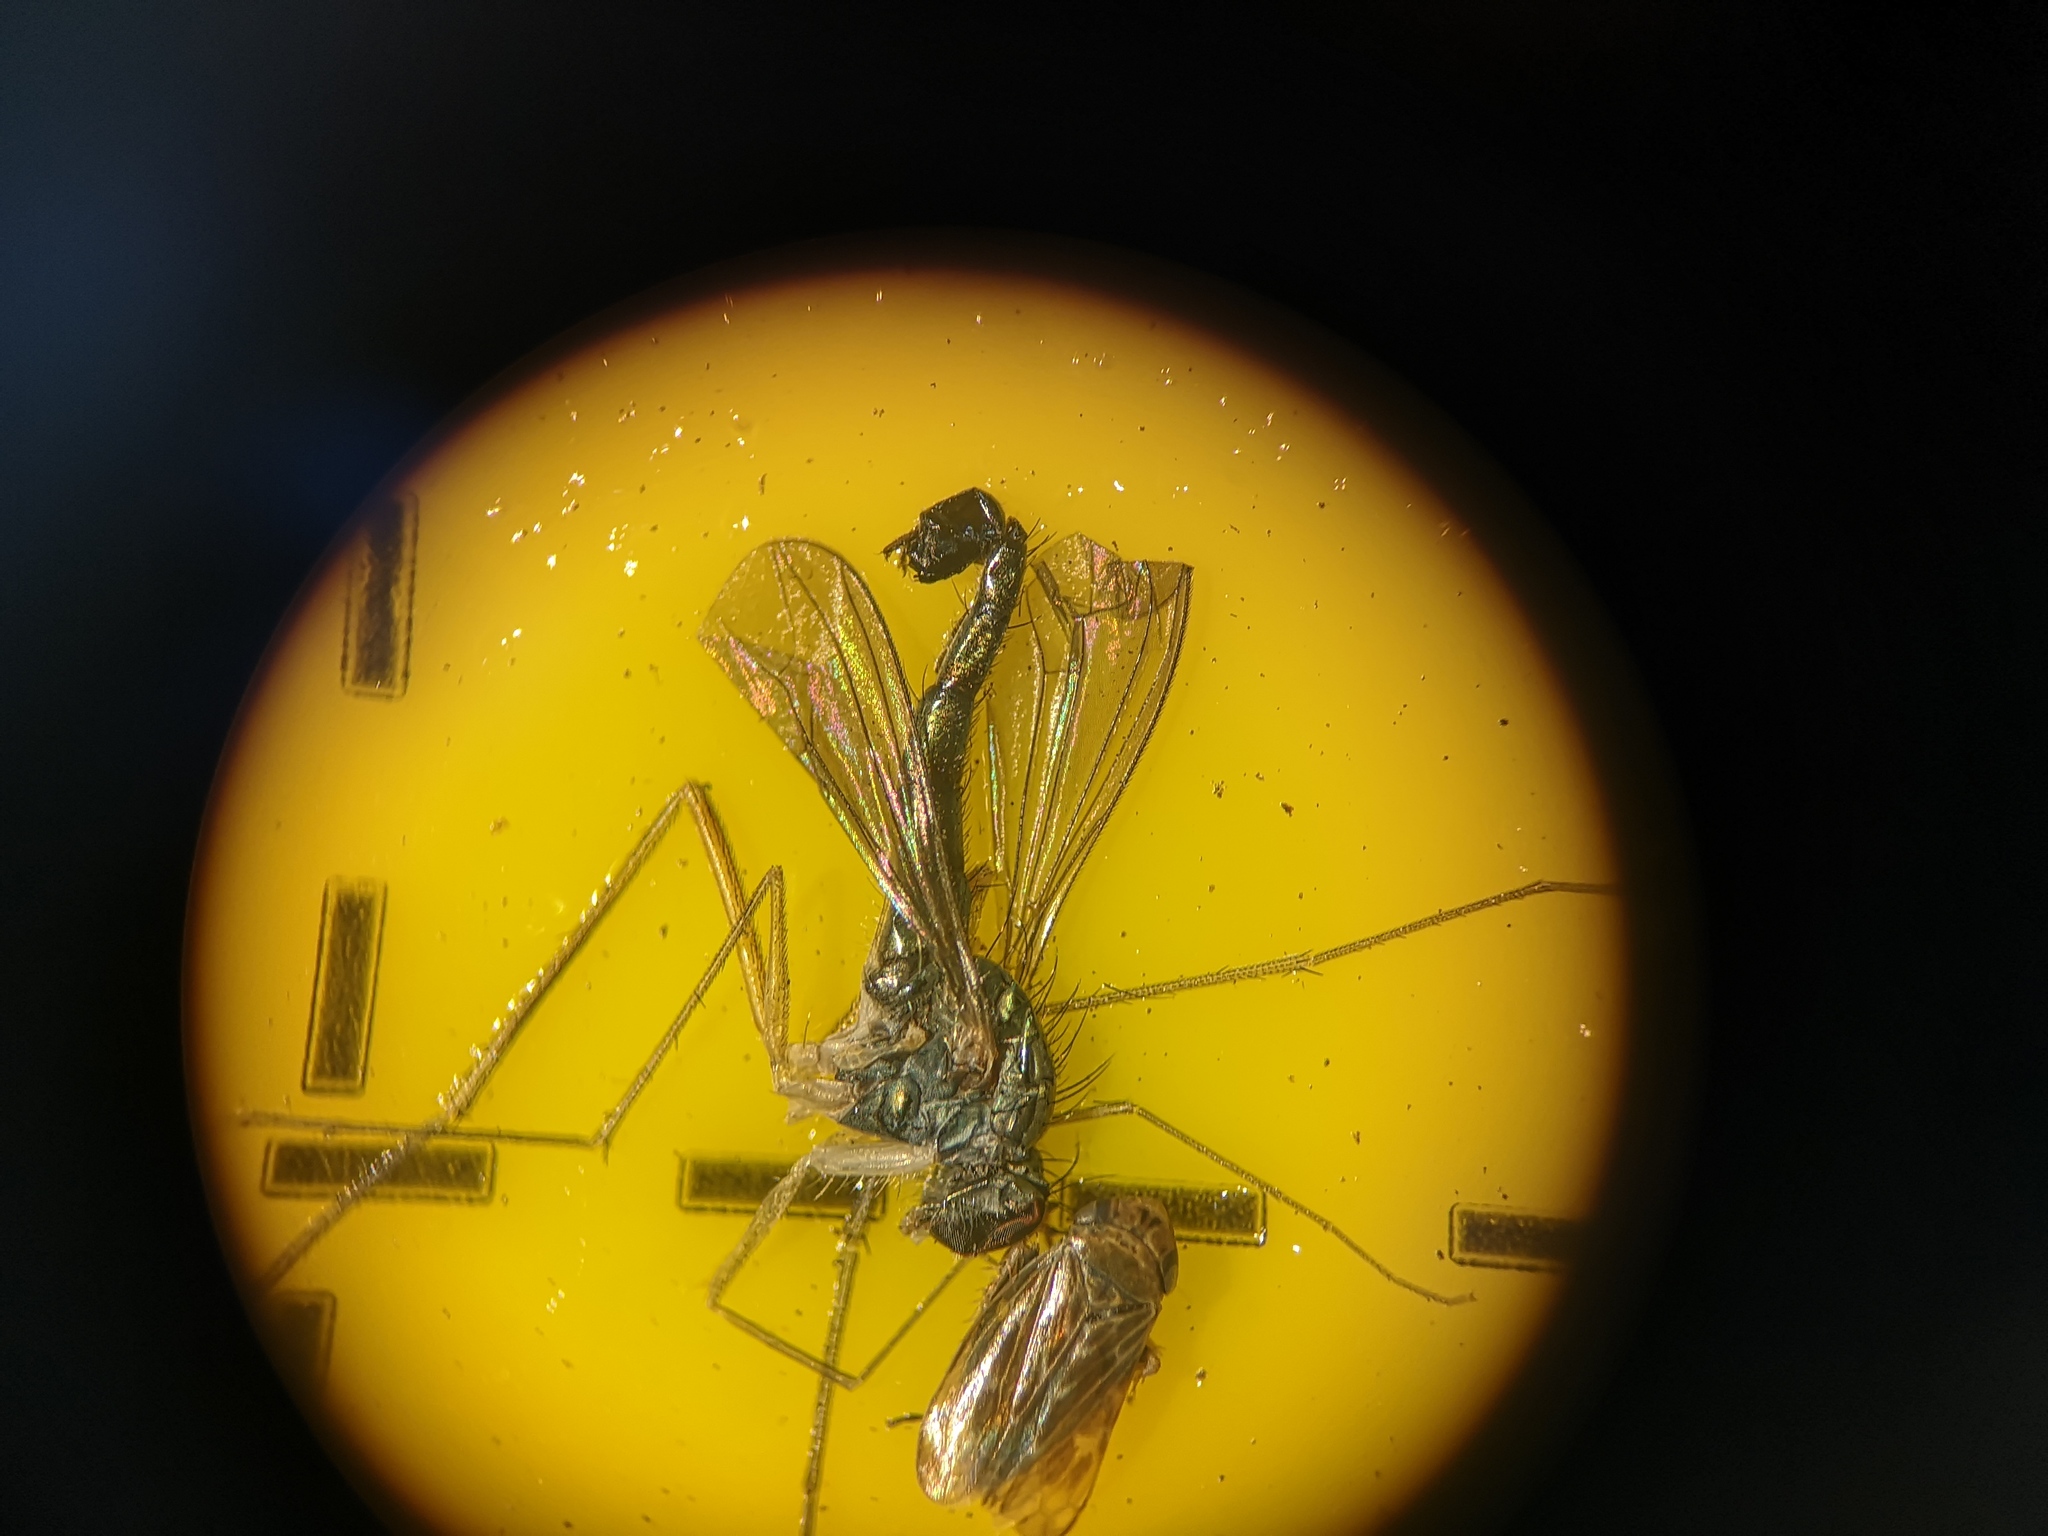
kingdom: Animalia
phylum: Arthropoda
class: Insecta
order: Diptera
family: Dolichopodidae
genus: Sciapus
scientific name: Sciapus platypterus
